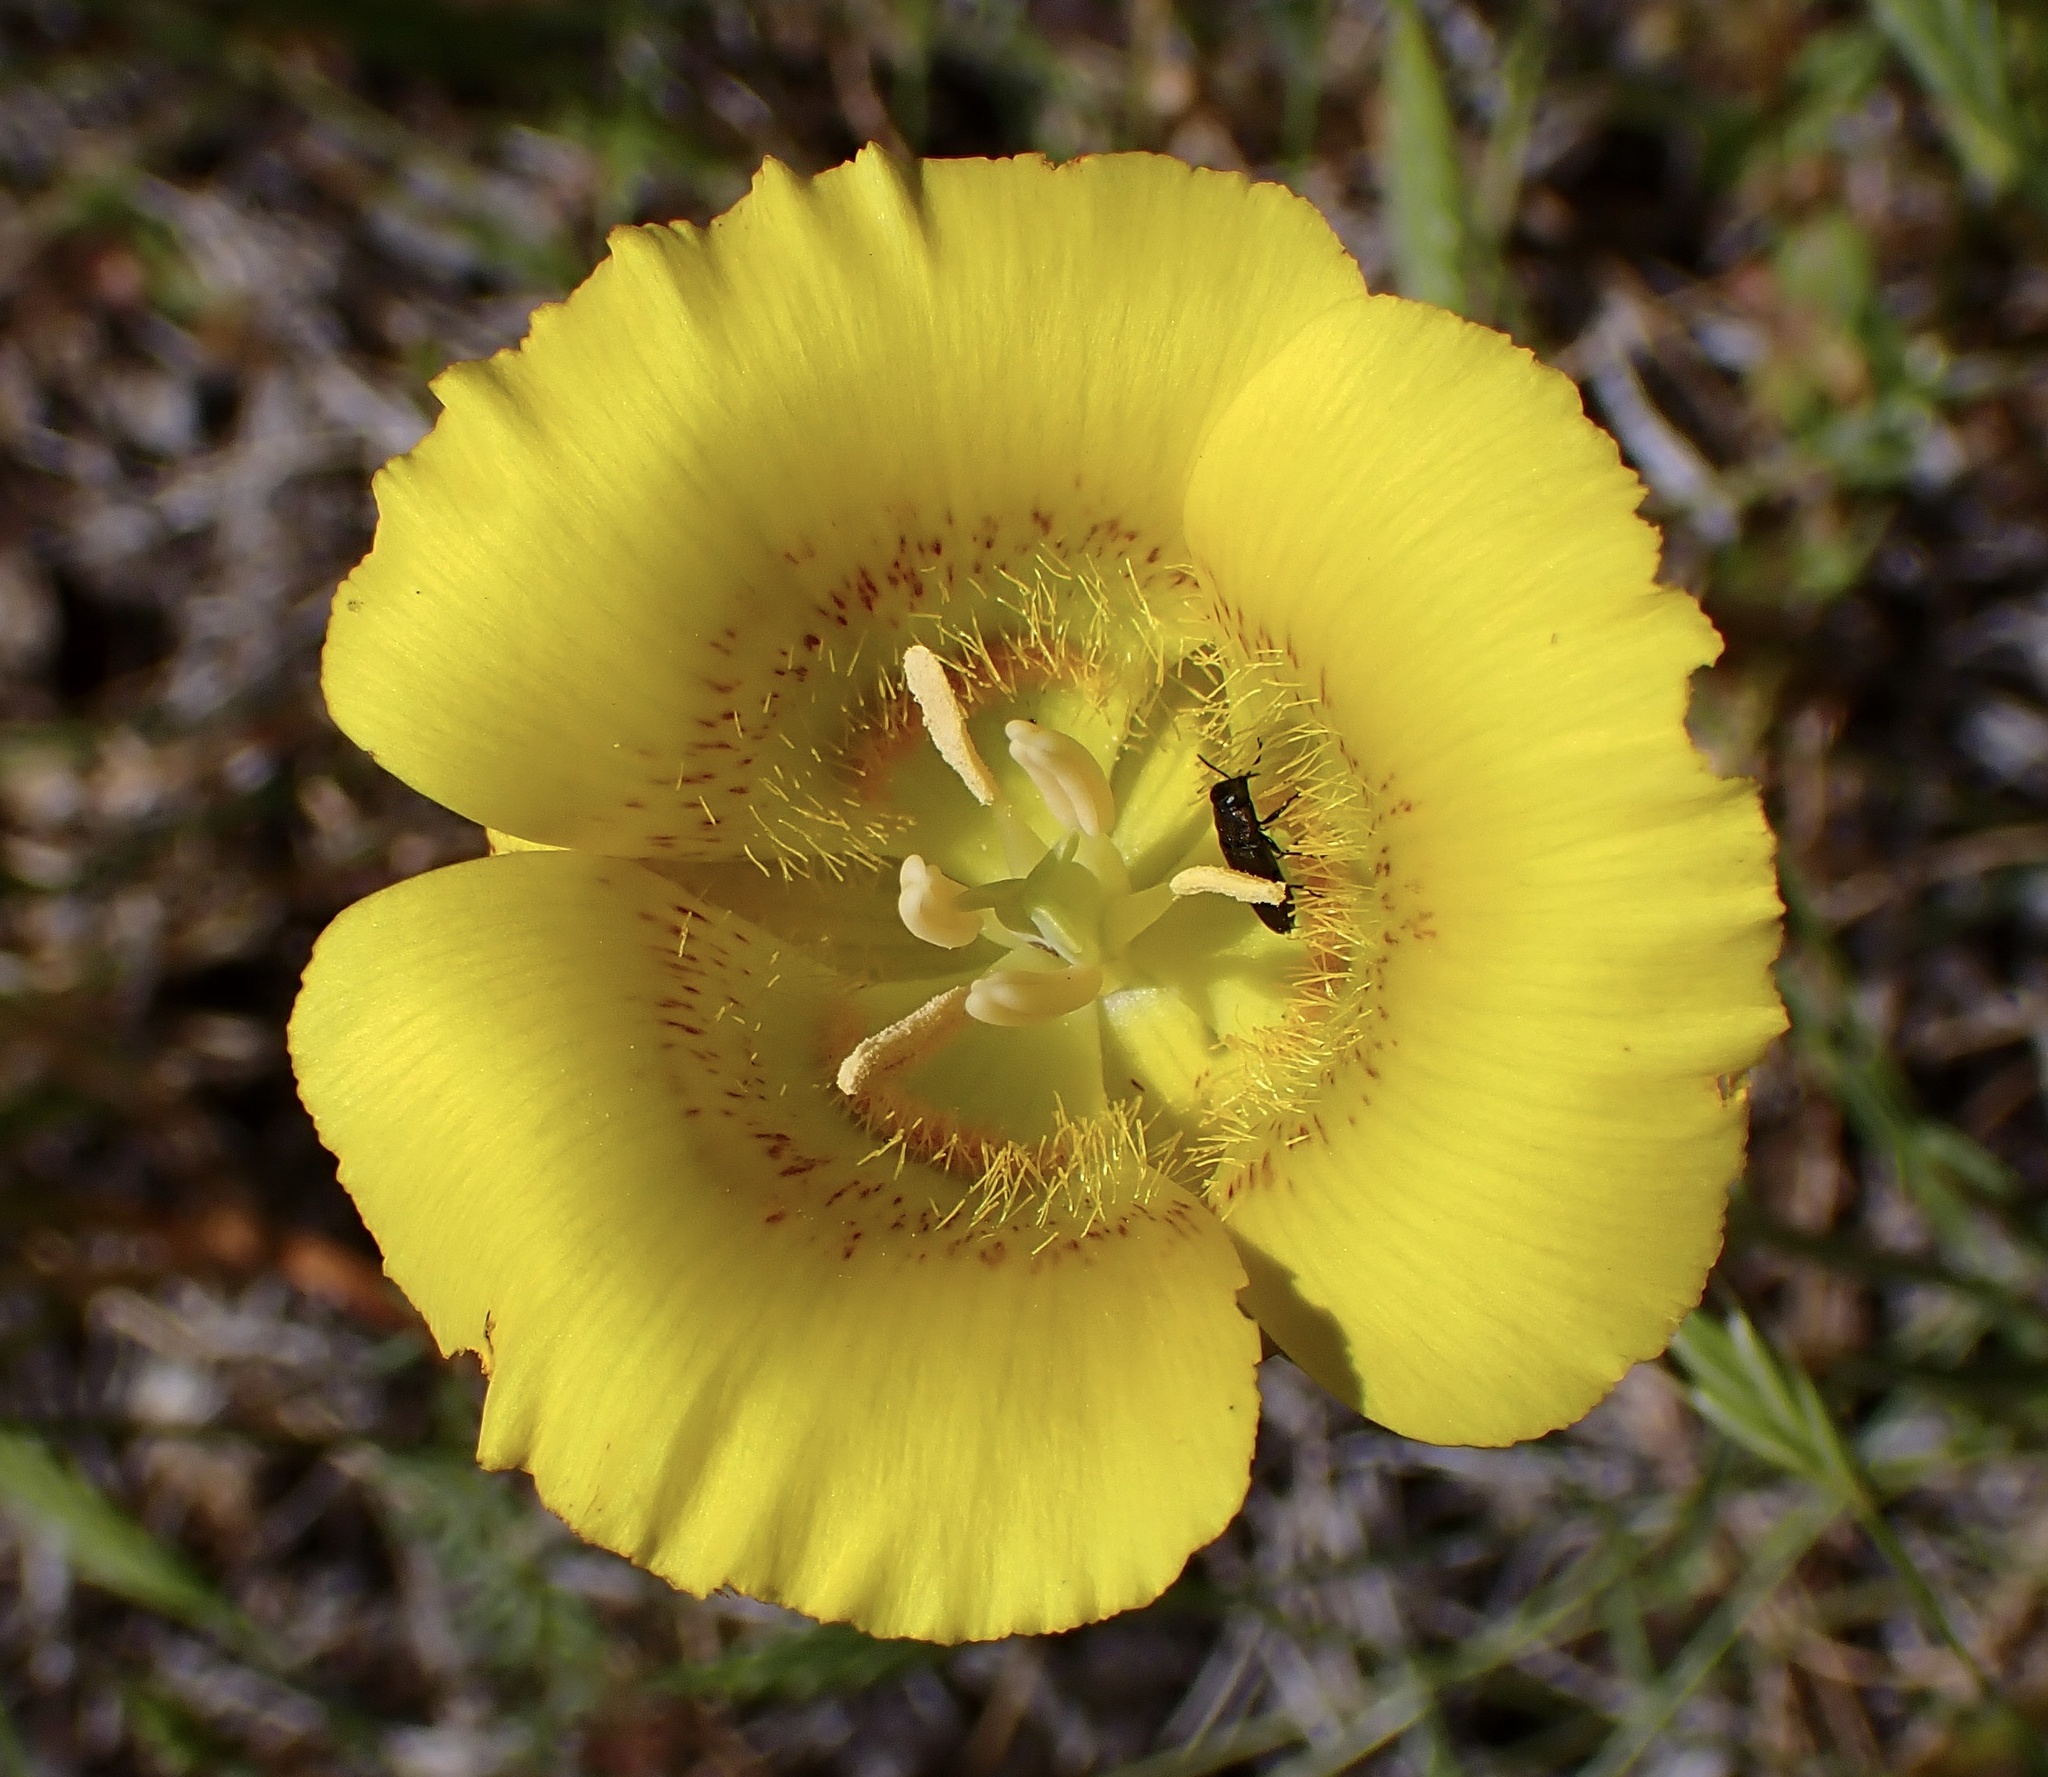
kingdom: Plantae
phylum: Tracheophyta
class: Liliopsida
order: Liliales
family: Liliaceae
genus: Calochortus
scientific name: Calochortus luteus
